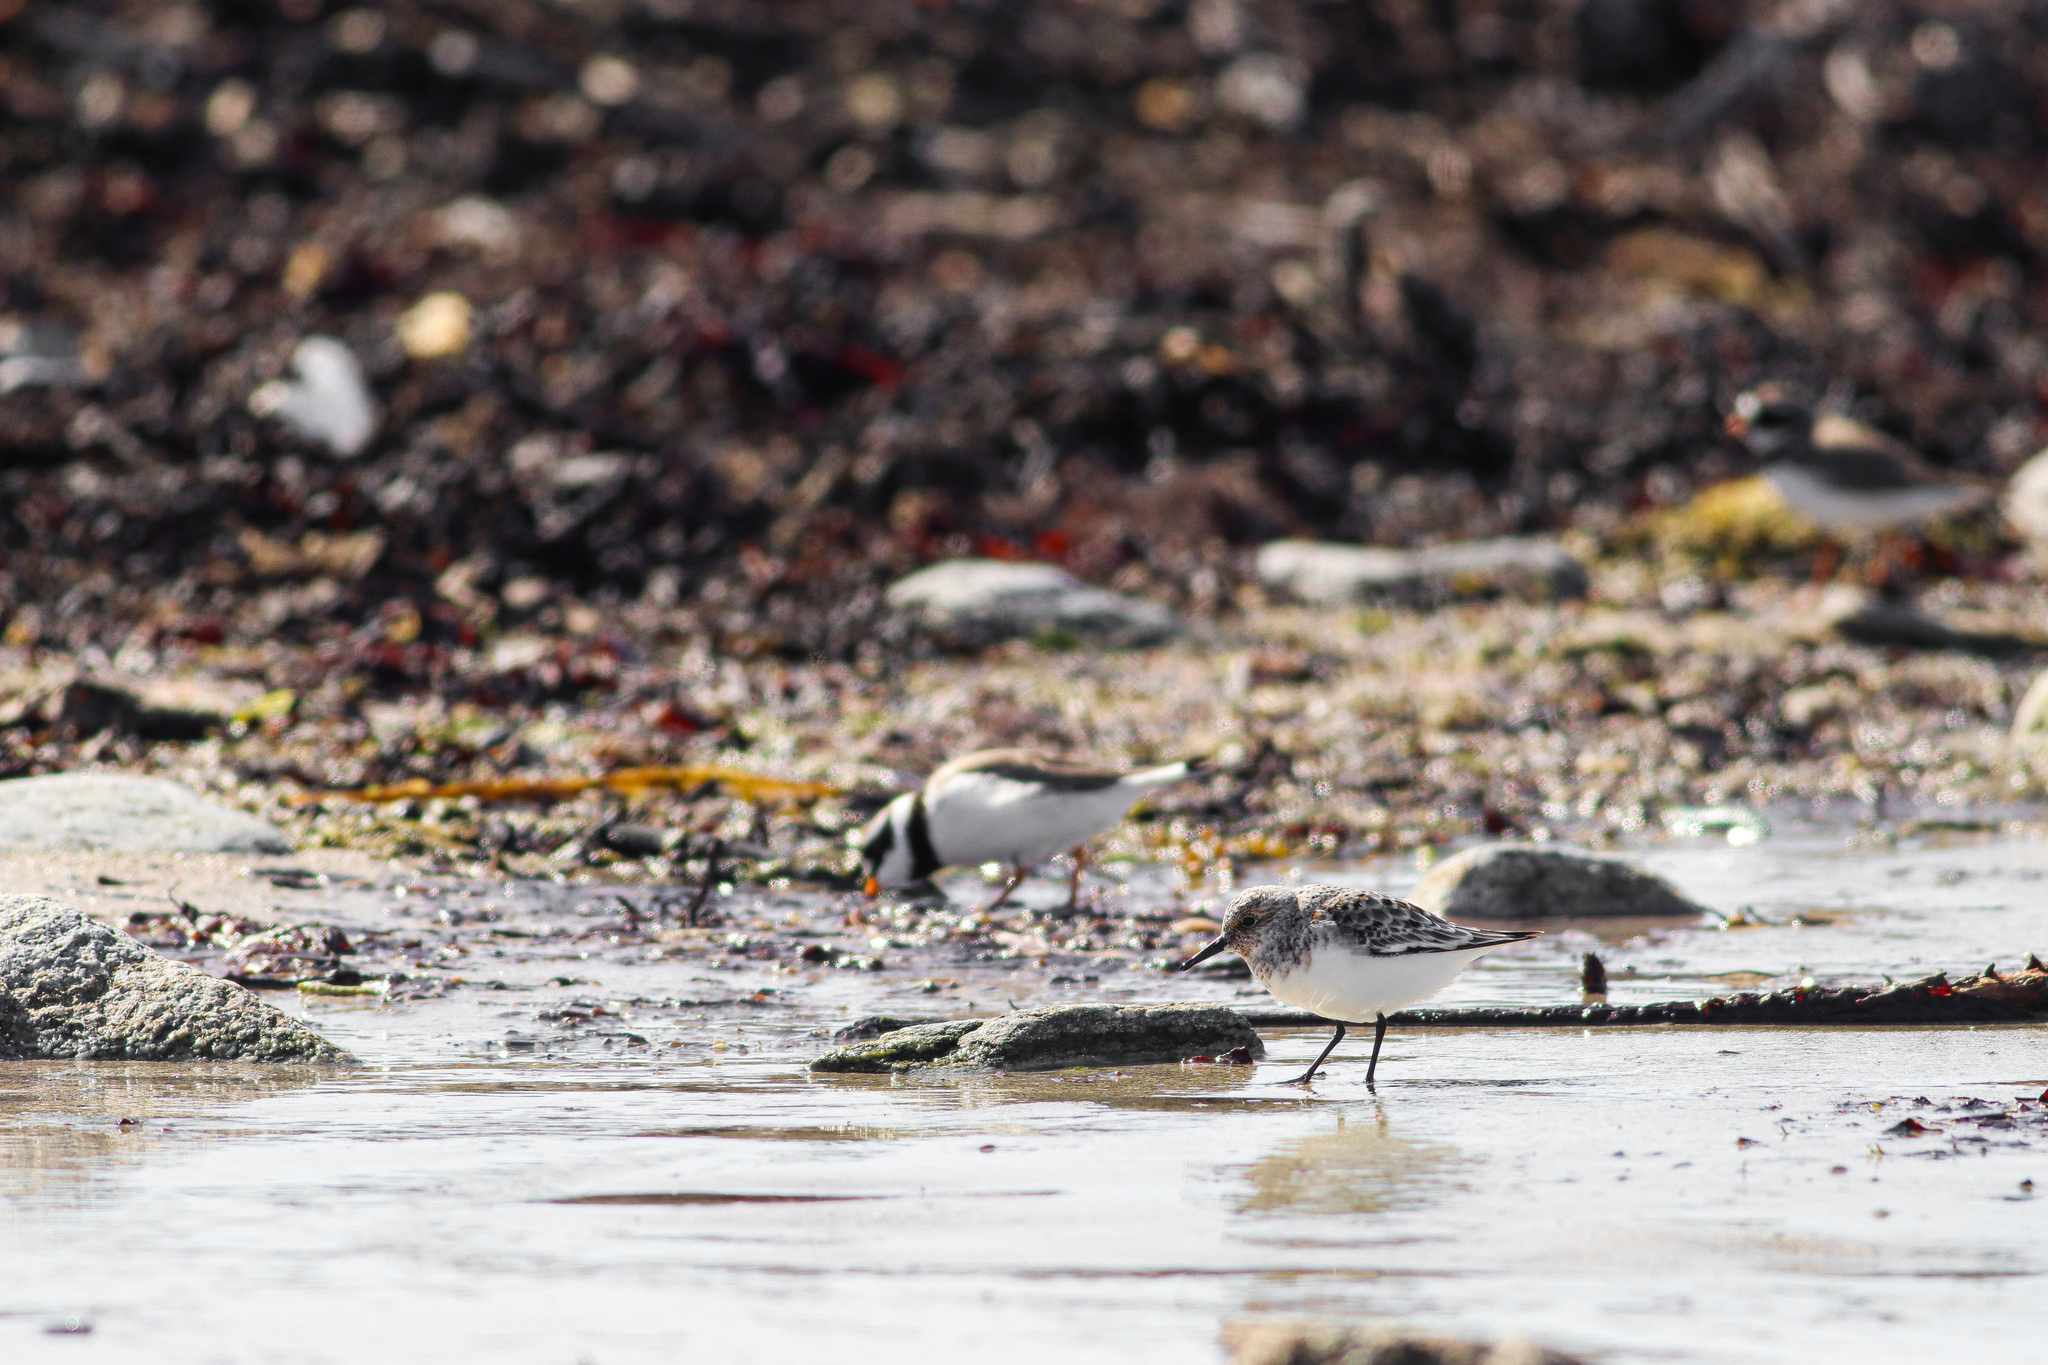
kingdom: Animalia
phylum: Chordata
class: Aves
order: Charadriiformes
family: Scolopacidae
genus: Calidris
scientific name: Calidris alba
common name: Sanderling
